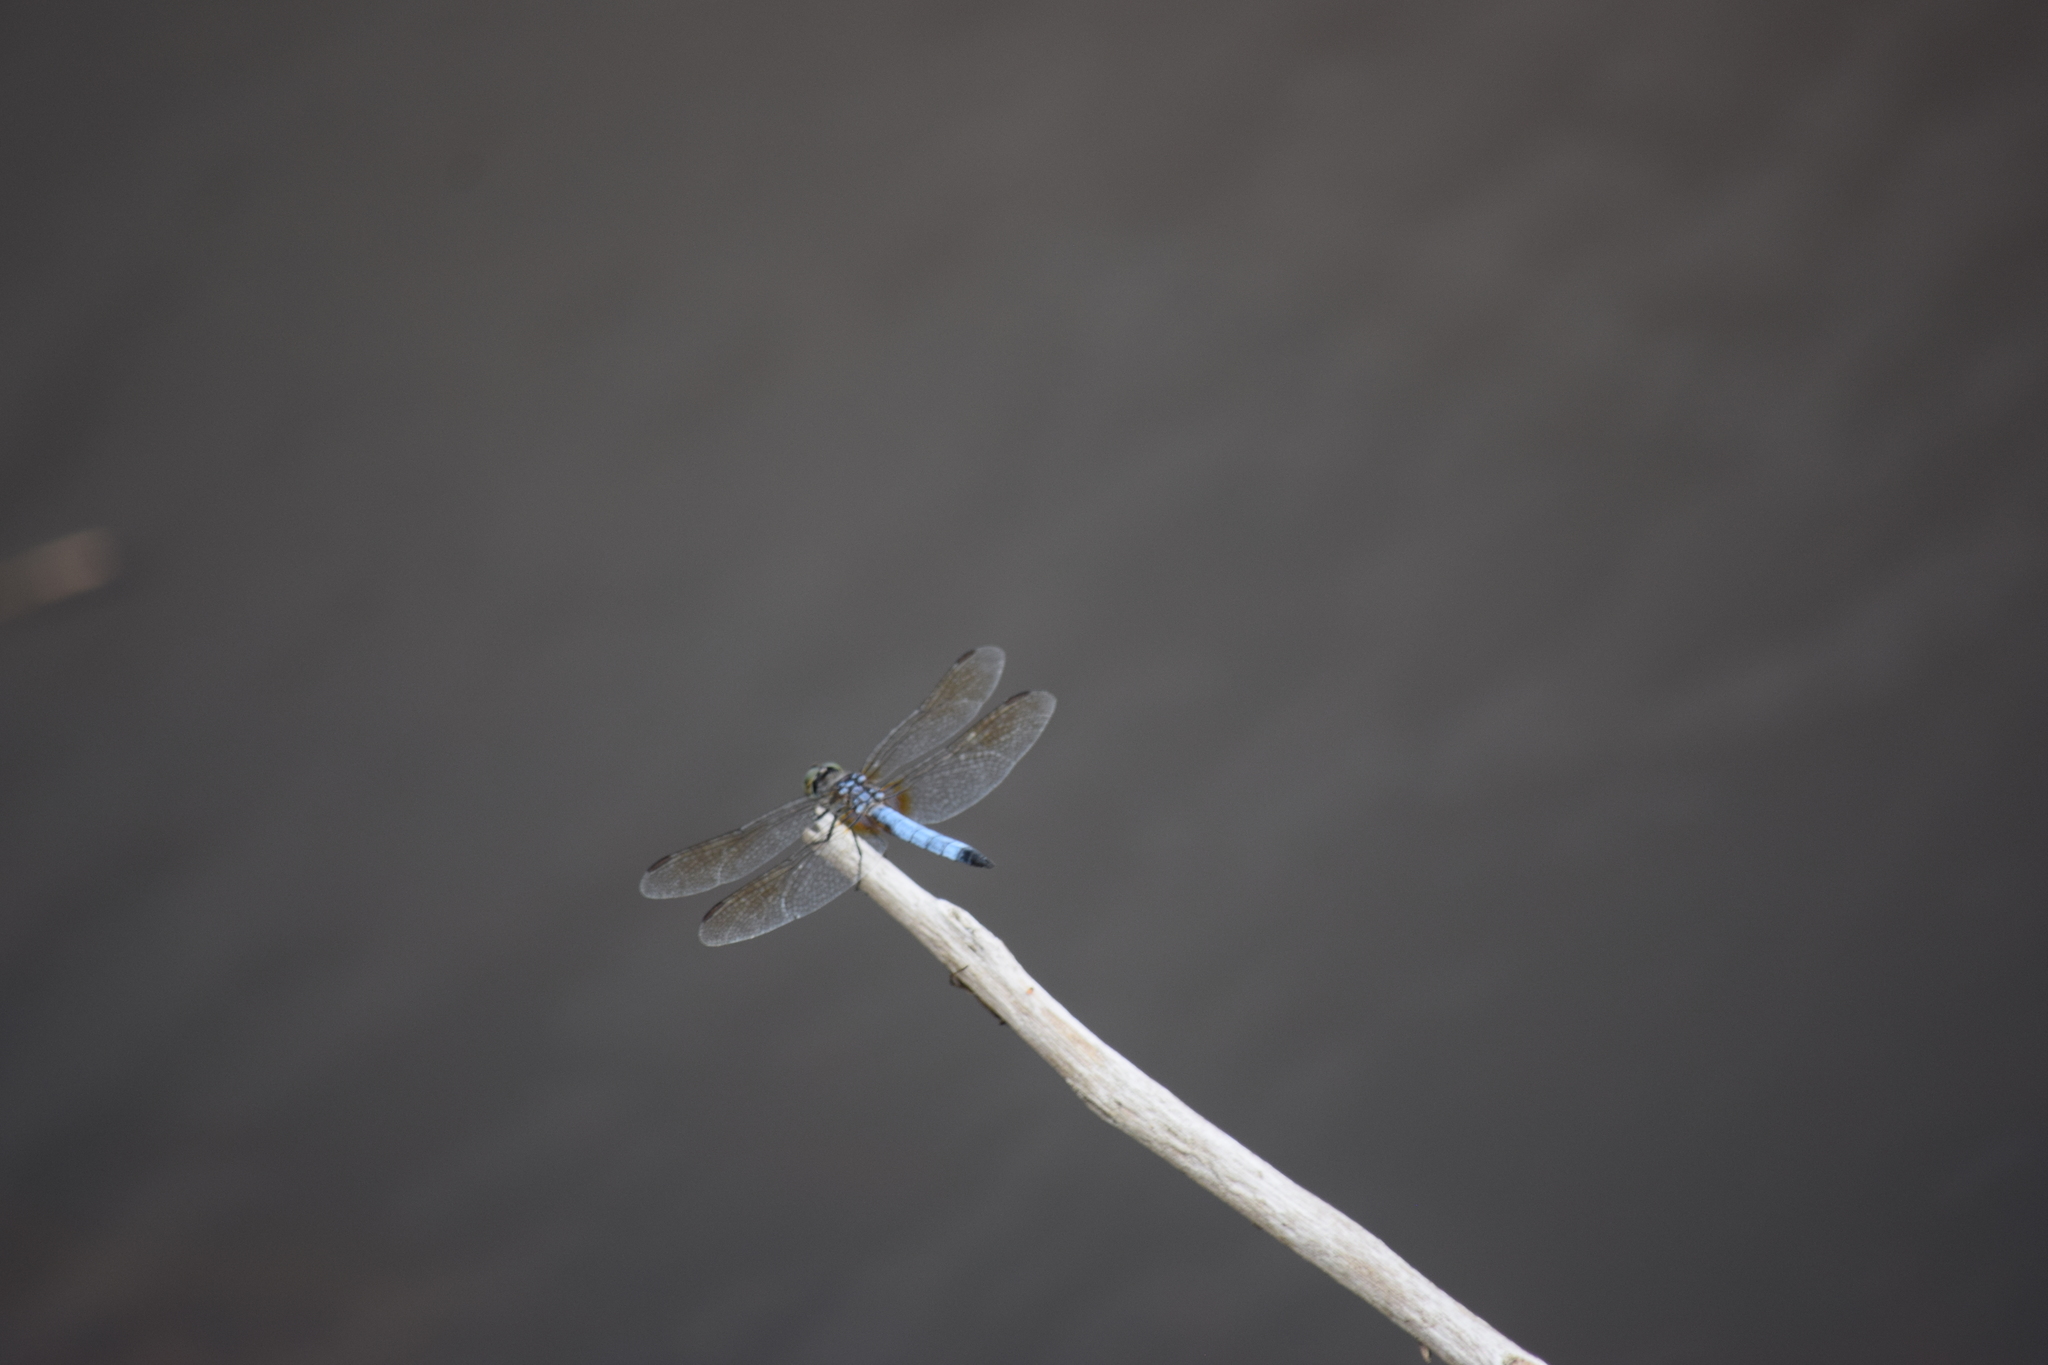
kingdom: Animalia
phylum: Arthropoda
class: Insecta
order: Odonata
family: Libellulidae
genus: Pachydiplax
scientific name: Pachydiplax longipennis
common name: Blue dasher
